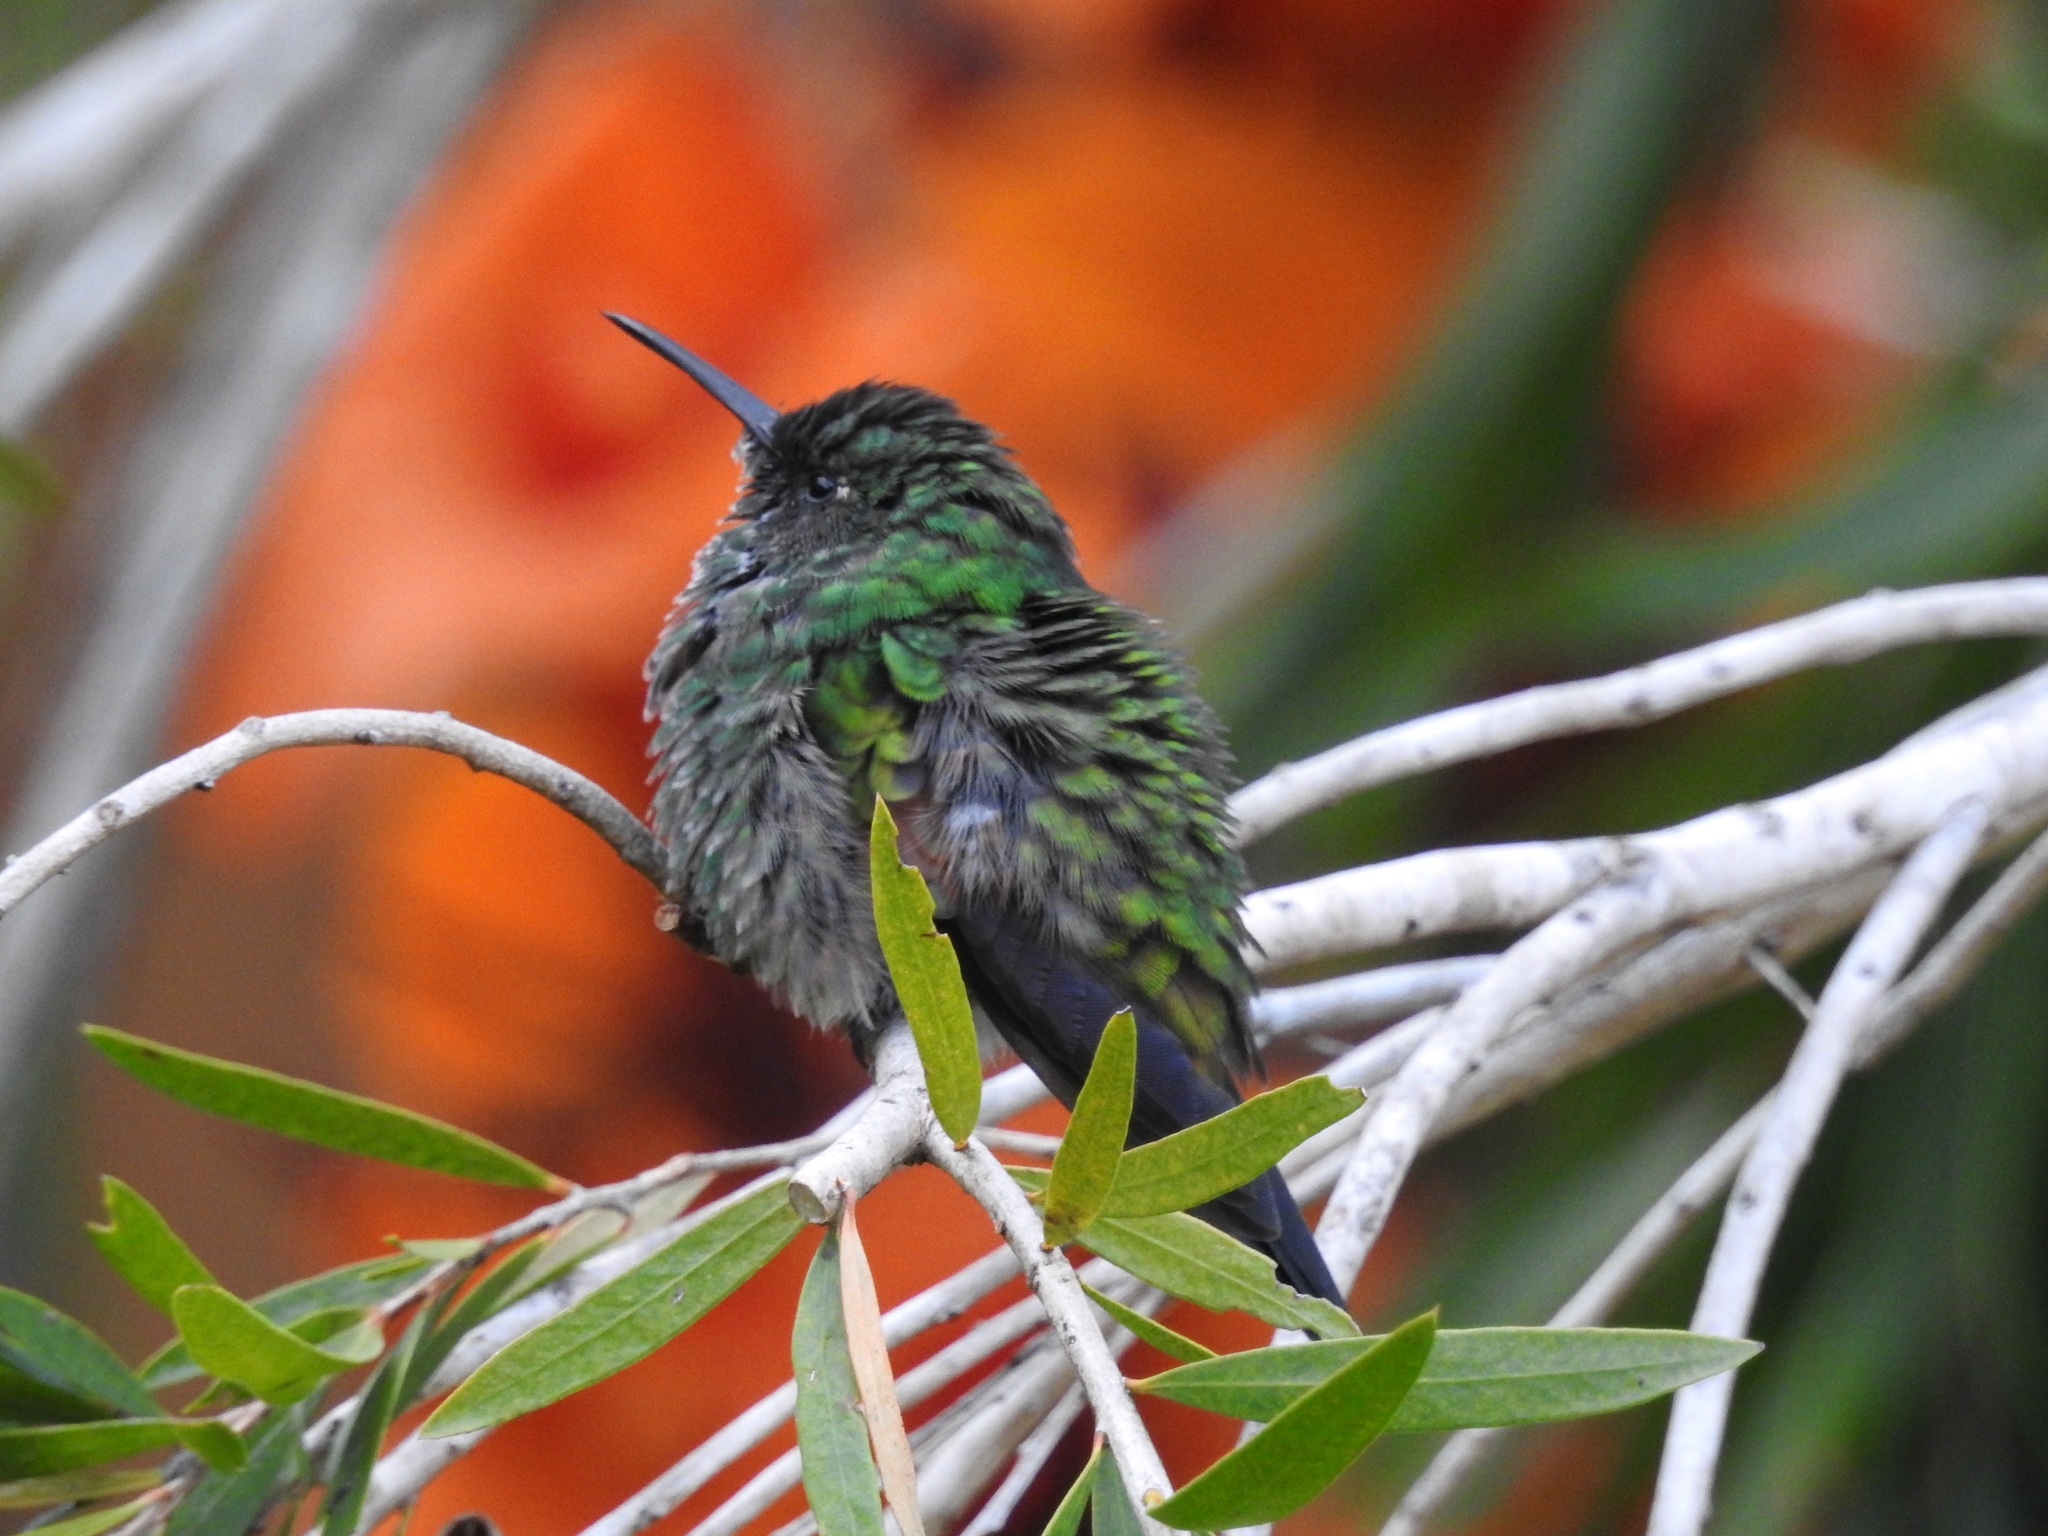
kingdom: Animalia
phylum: Chordata
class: Aves
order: Apodiformes
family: Trochilidae
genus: Eupherusa
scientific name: Eupherusa eximia
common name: Stripe-tailed hummingbird
